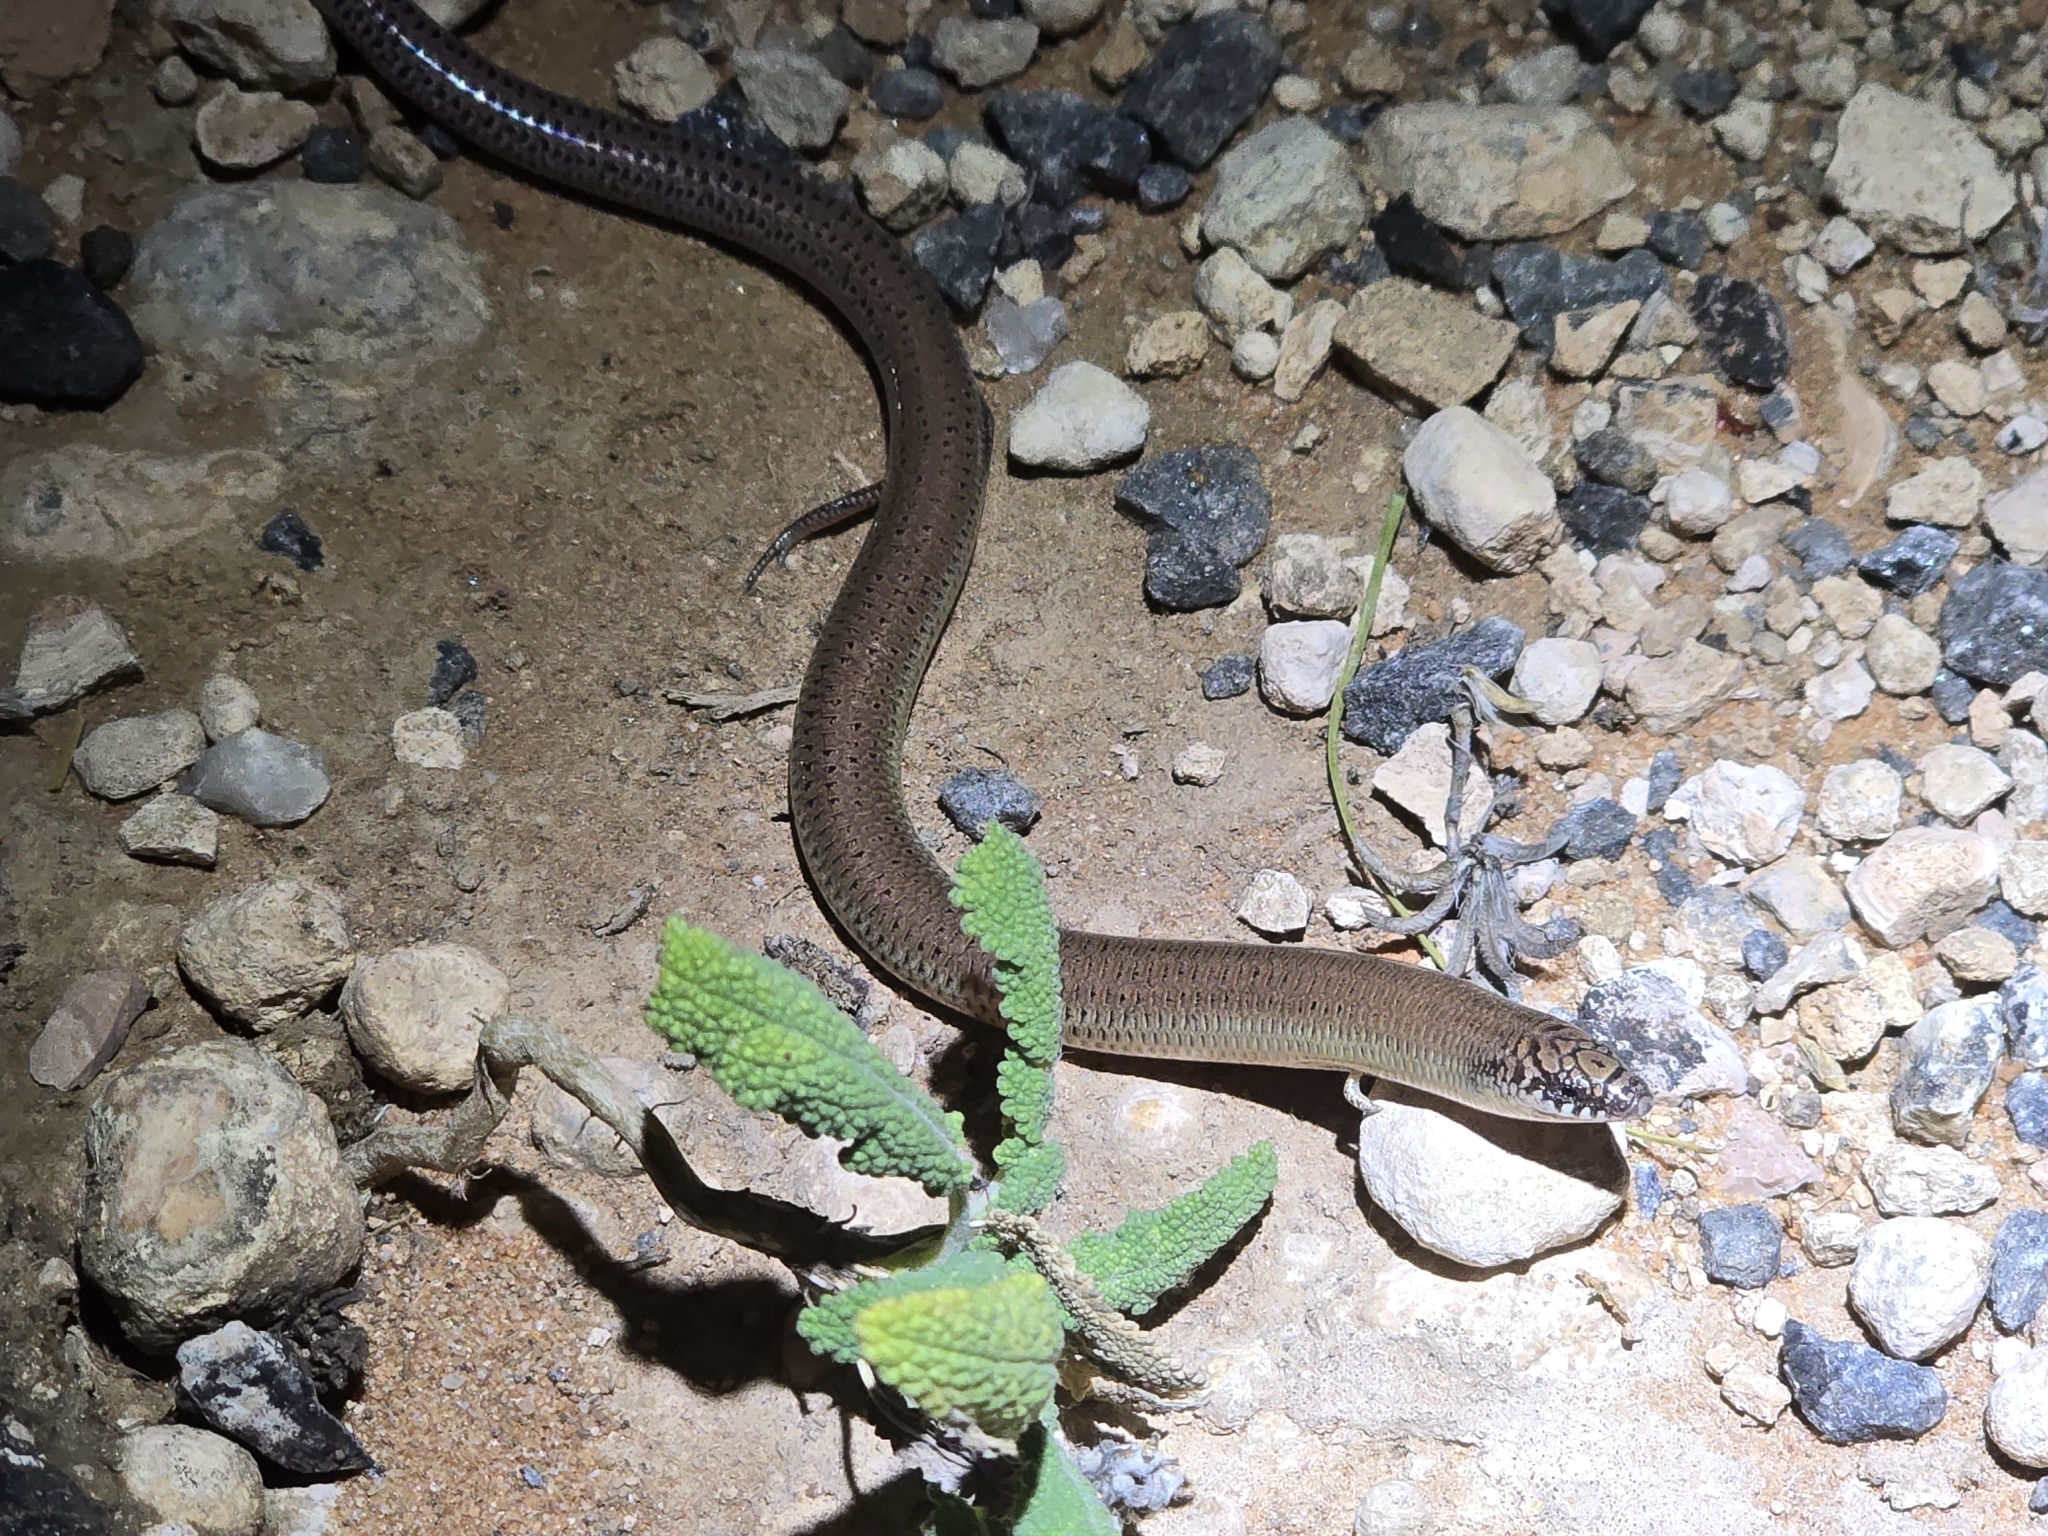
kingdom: Animalia
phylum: Chordata
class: Squamata
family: Scincidae
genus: Lerista
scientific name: Lerista punctatovittata
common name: Eastern robust slider
